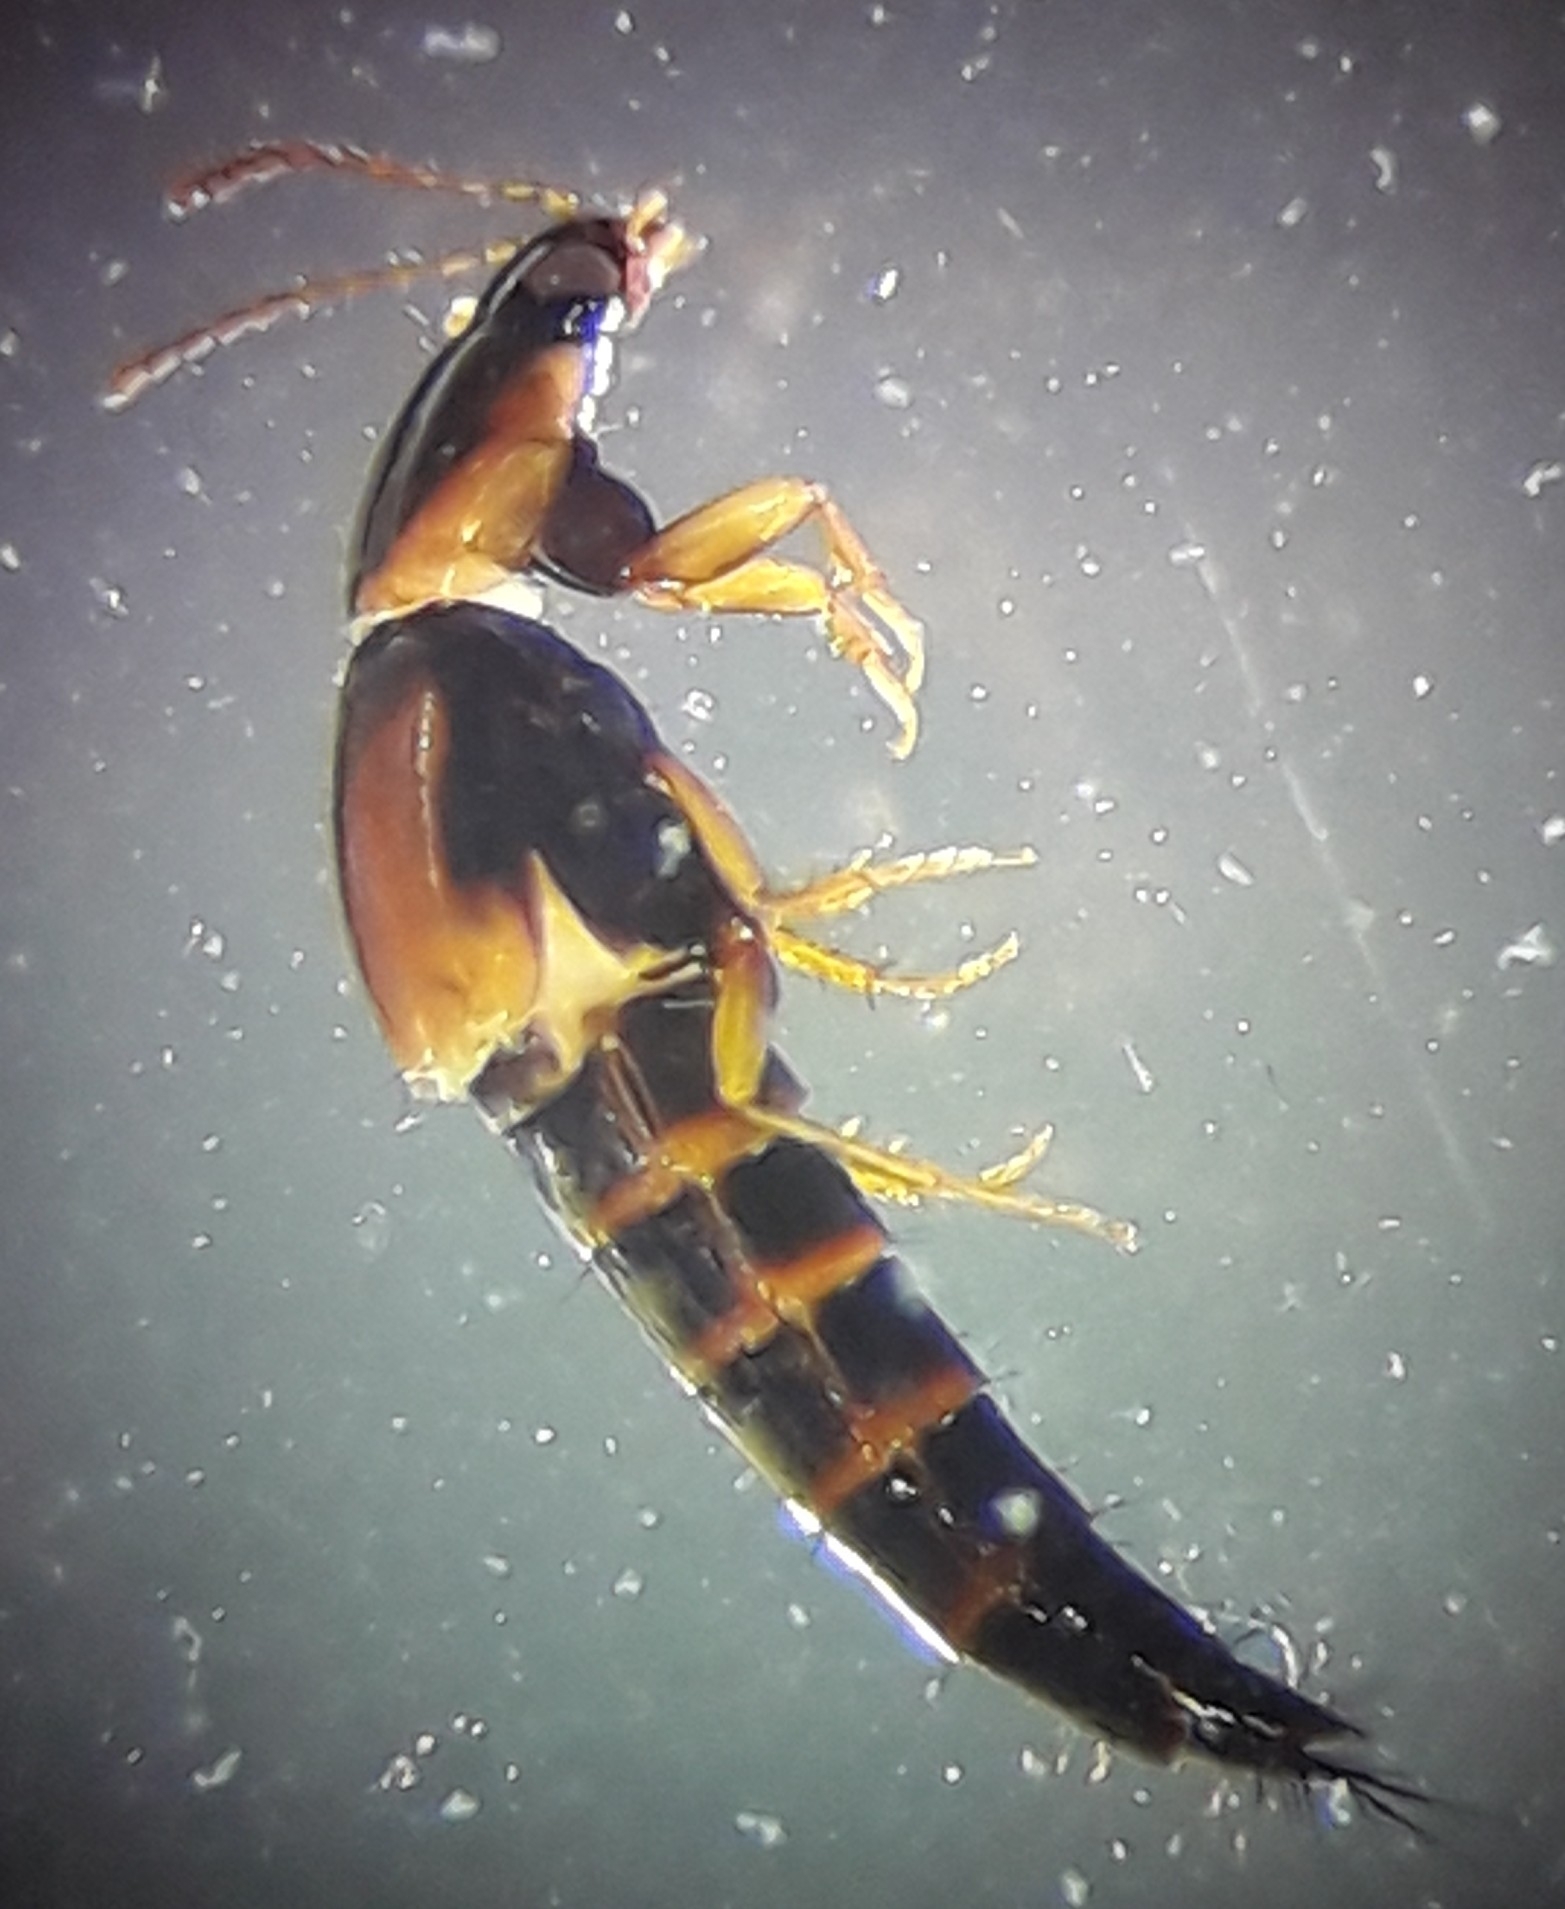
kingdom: Animalia
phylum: Arthropoda
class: Insecta
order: Coleoptera
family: Staphylinidae
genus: Tachyporus
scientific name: Tachyporus hypnorum
